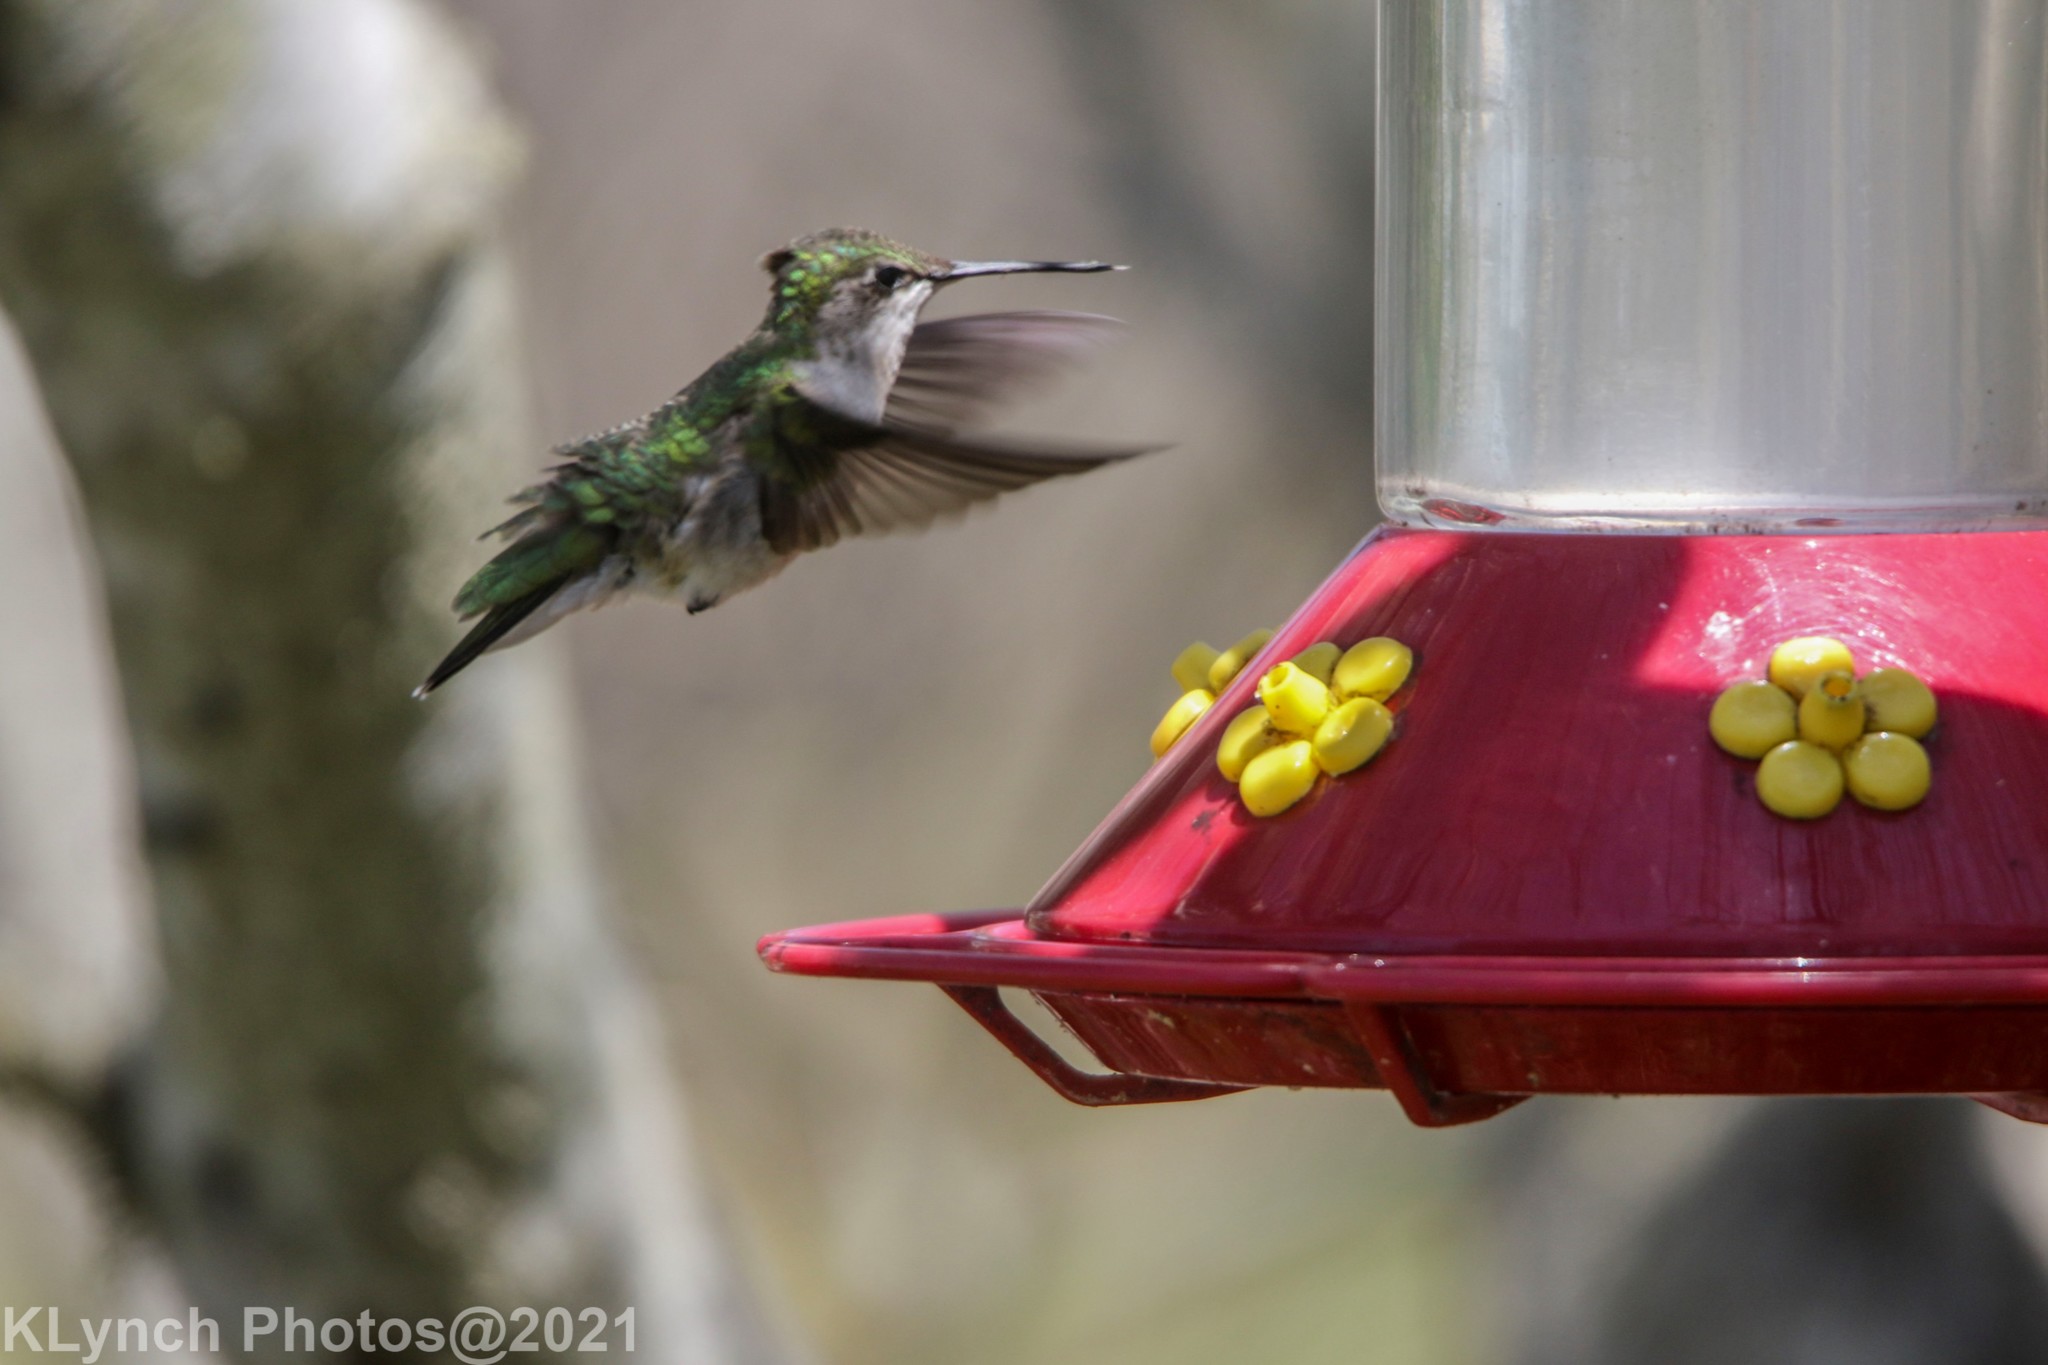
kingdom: Animalia
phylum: Chordata
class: Aves
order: Apodiformes
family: Trochilidae
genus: Archilochus
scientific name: Archilochus colubris
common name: Ruby-throated hummingbird
